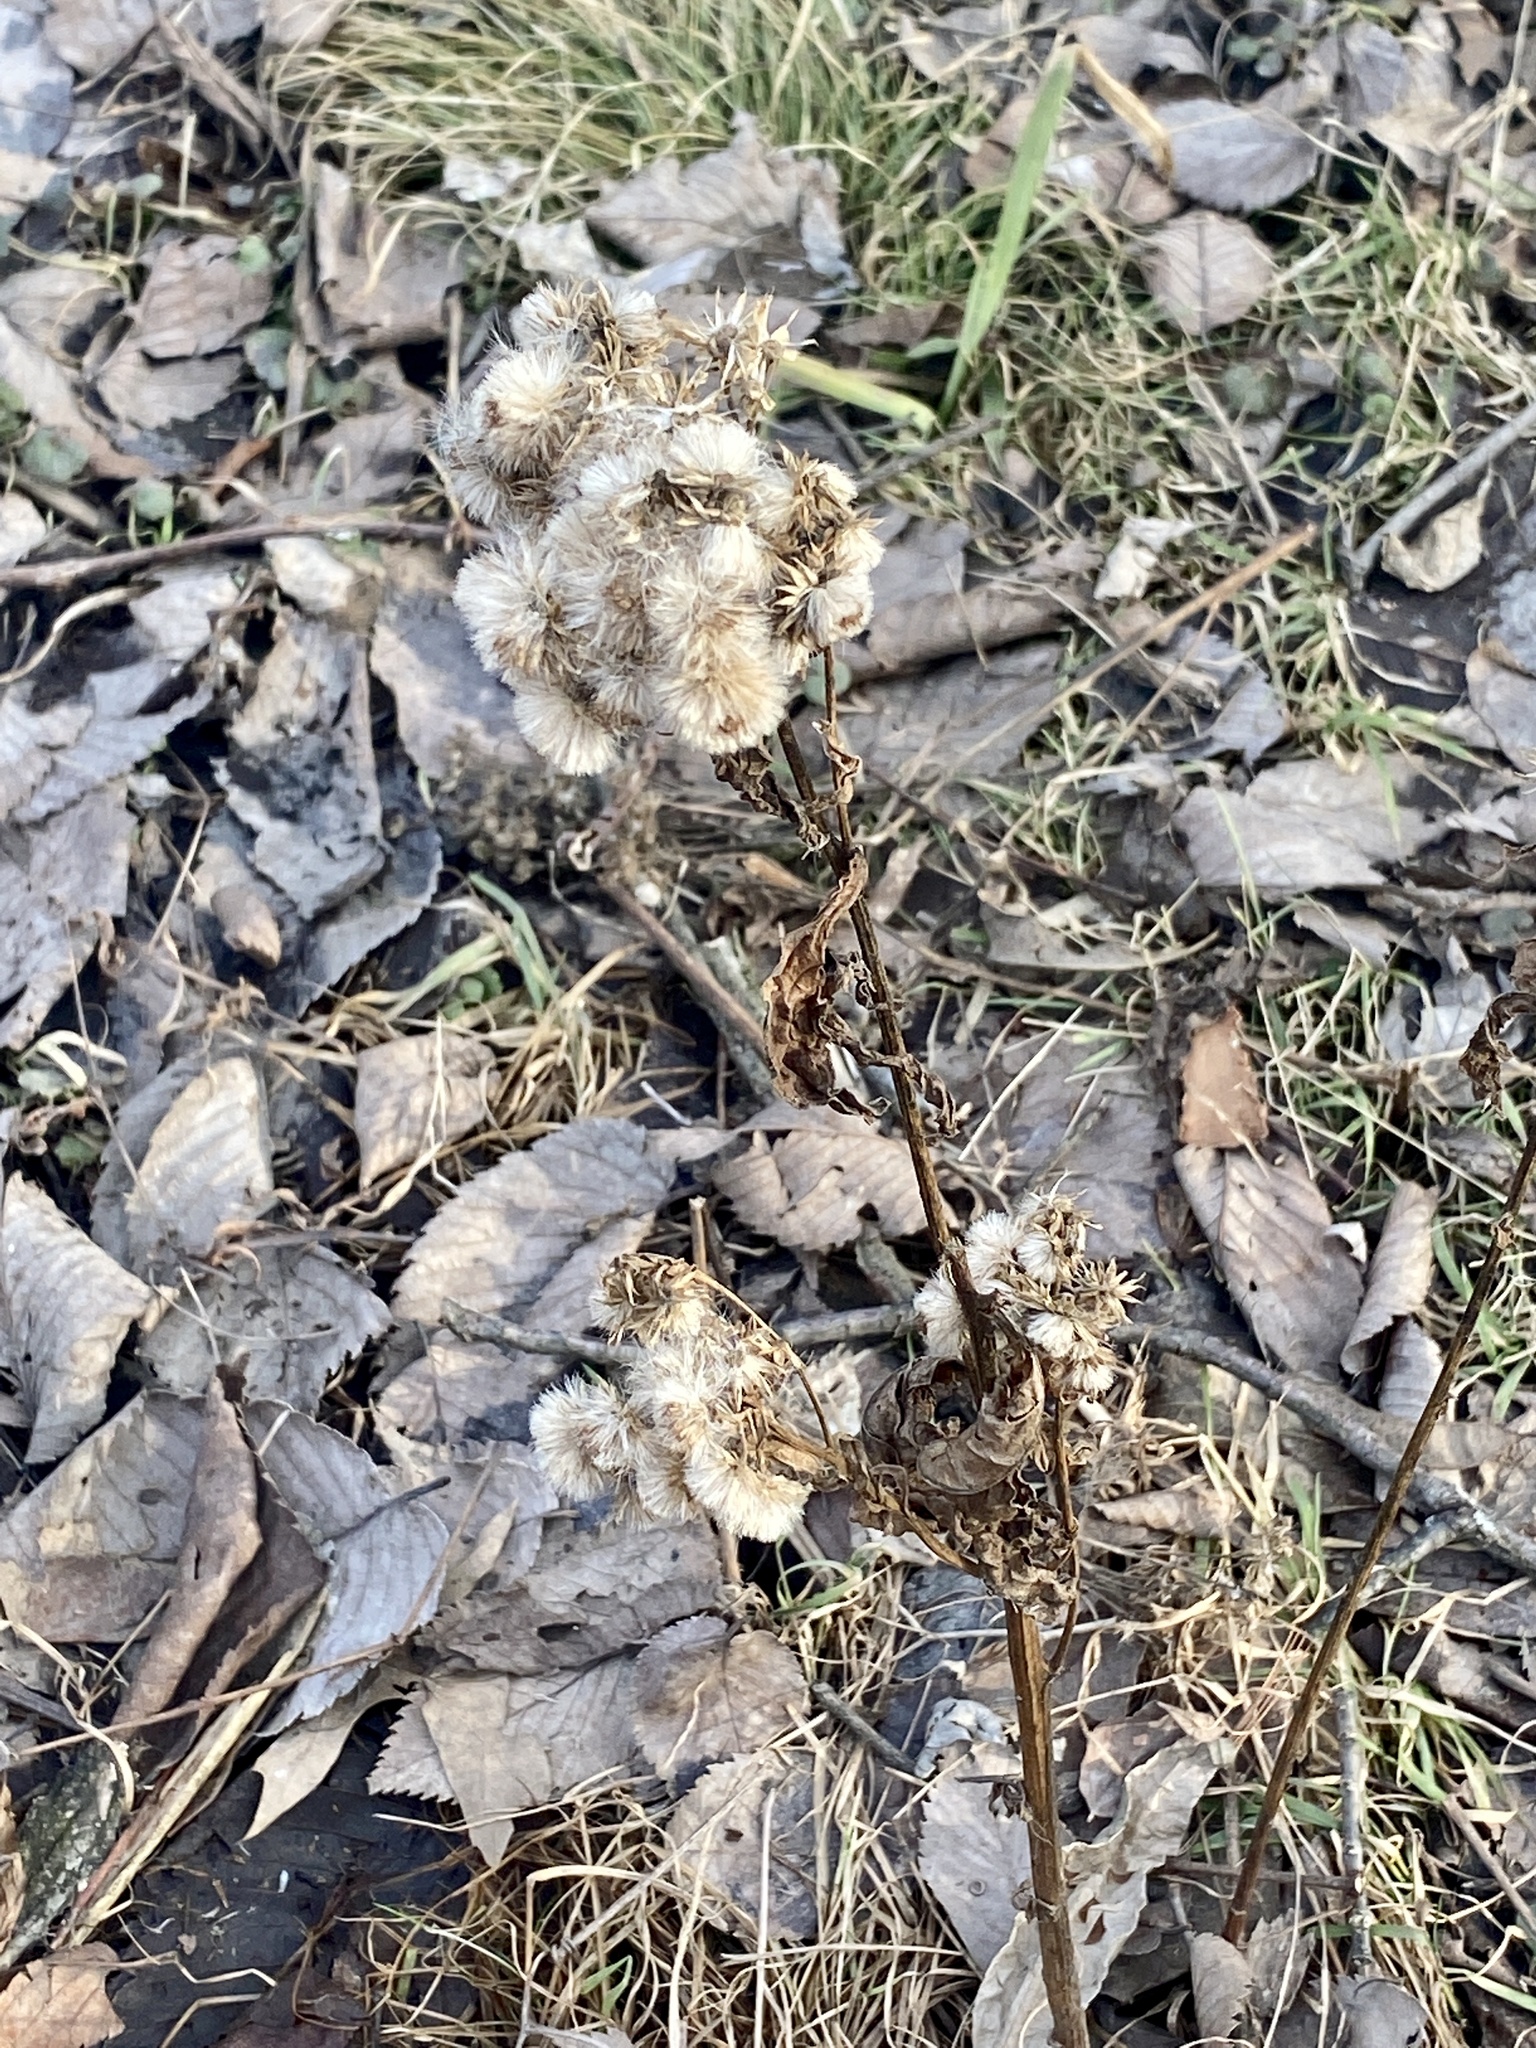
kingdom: Plantae
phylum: Tracheophyta
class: Magnoliopsida
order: Asterales
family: Asteraceae
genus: Pluchea
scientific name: Pluchea odorata
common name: Saltmarsh fleabane
